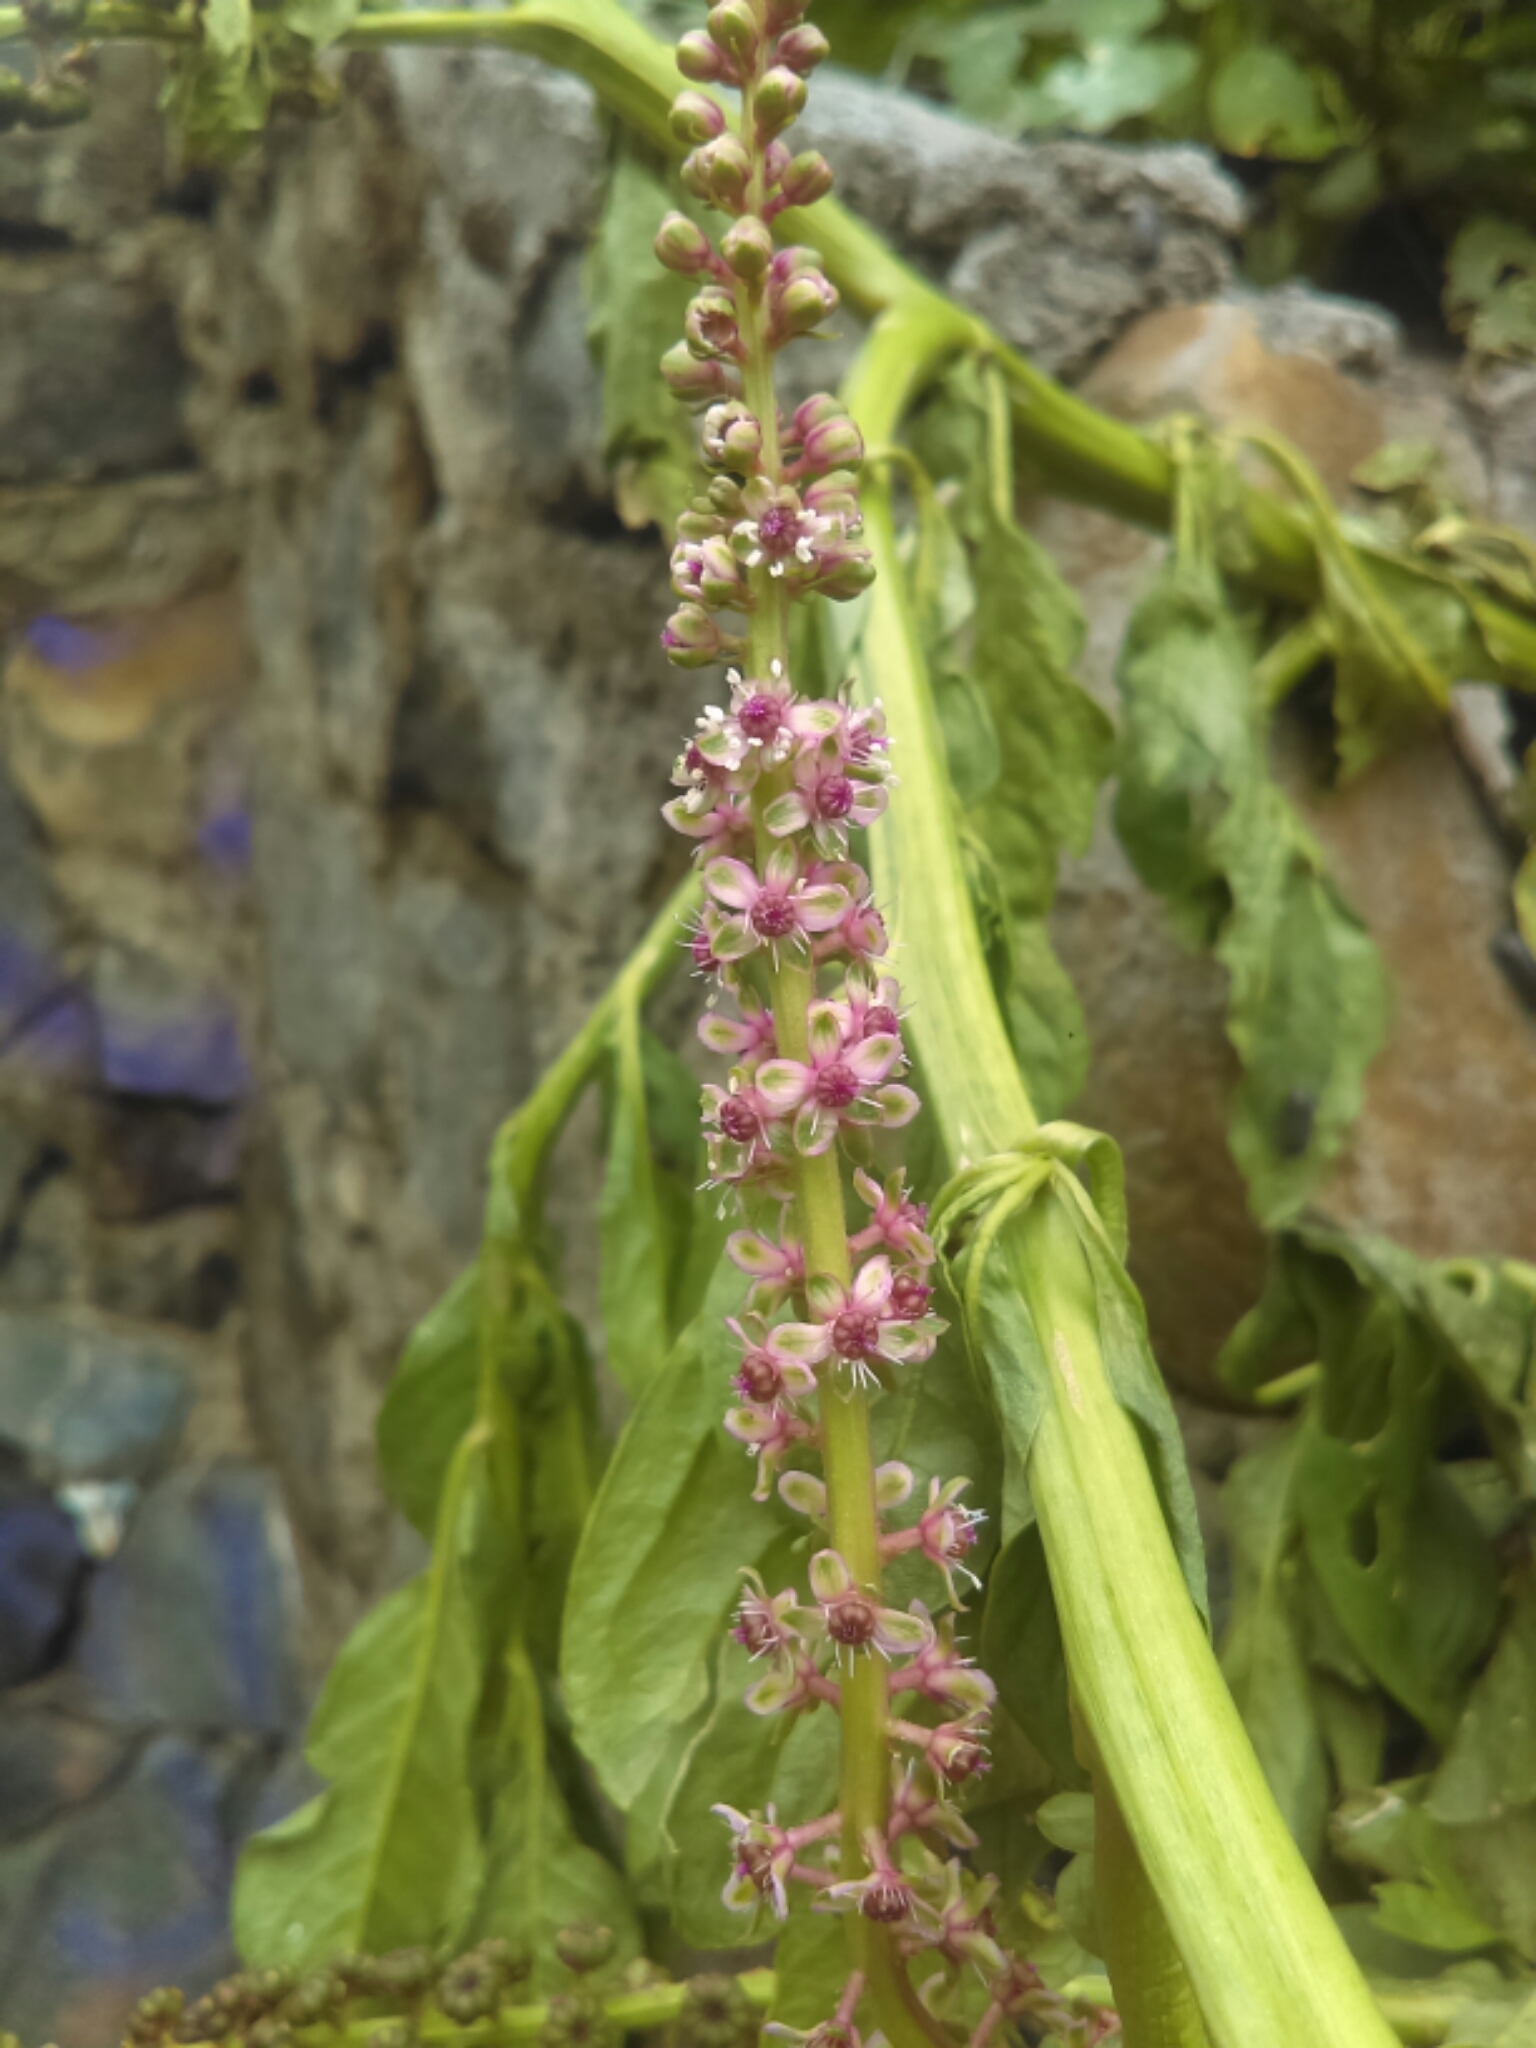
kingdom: Plantae
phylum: Tracheophyta
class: Magnoliopsida
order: Caryophyllales
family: Phytolaccaceae
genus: Phytolacca
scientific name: Phytolacca icosandra
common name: Button pokeweed
